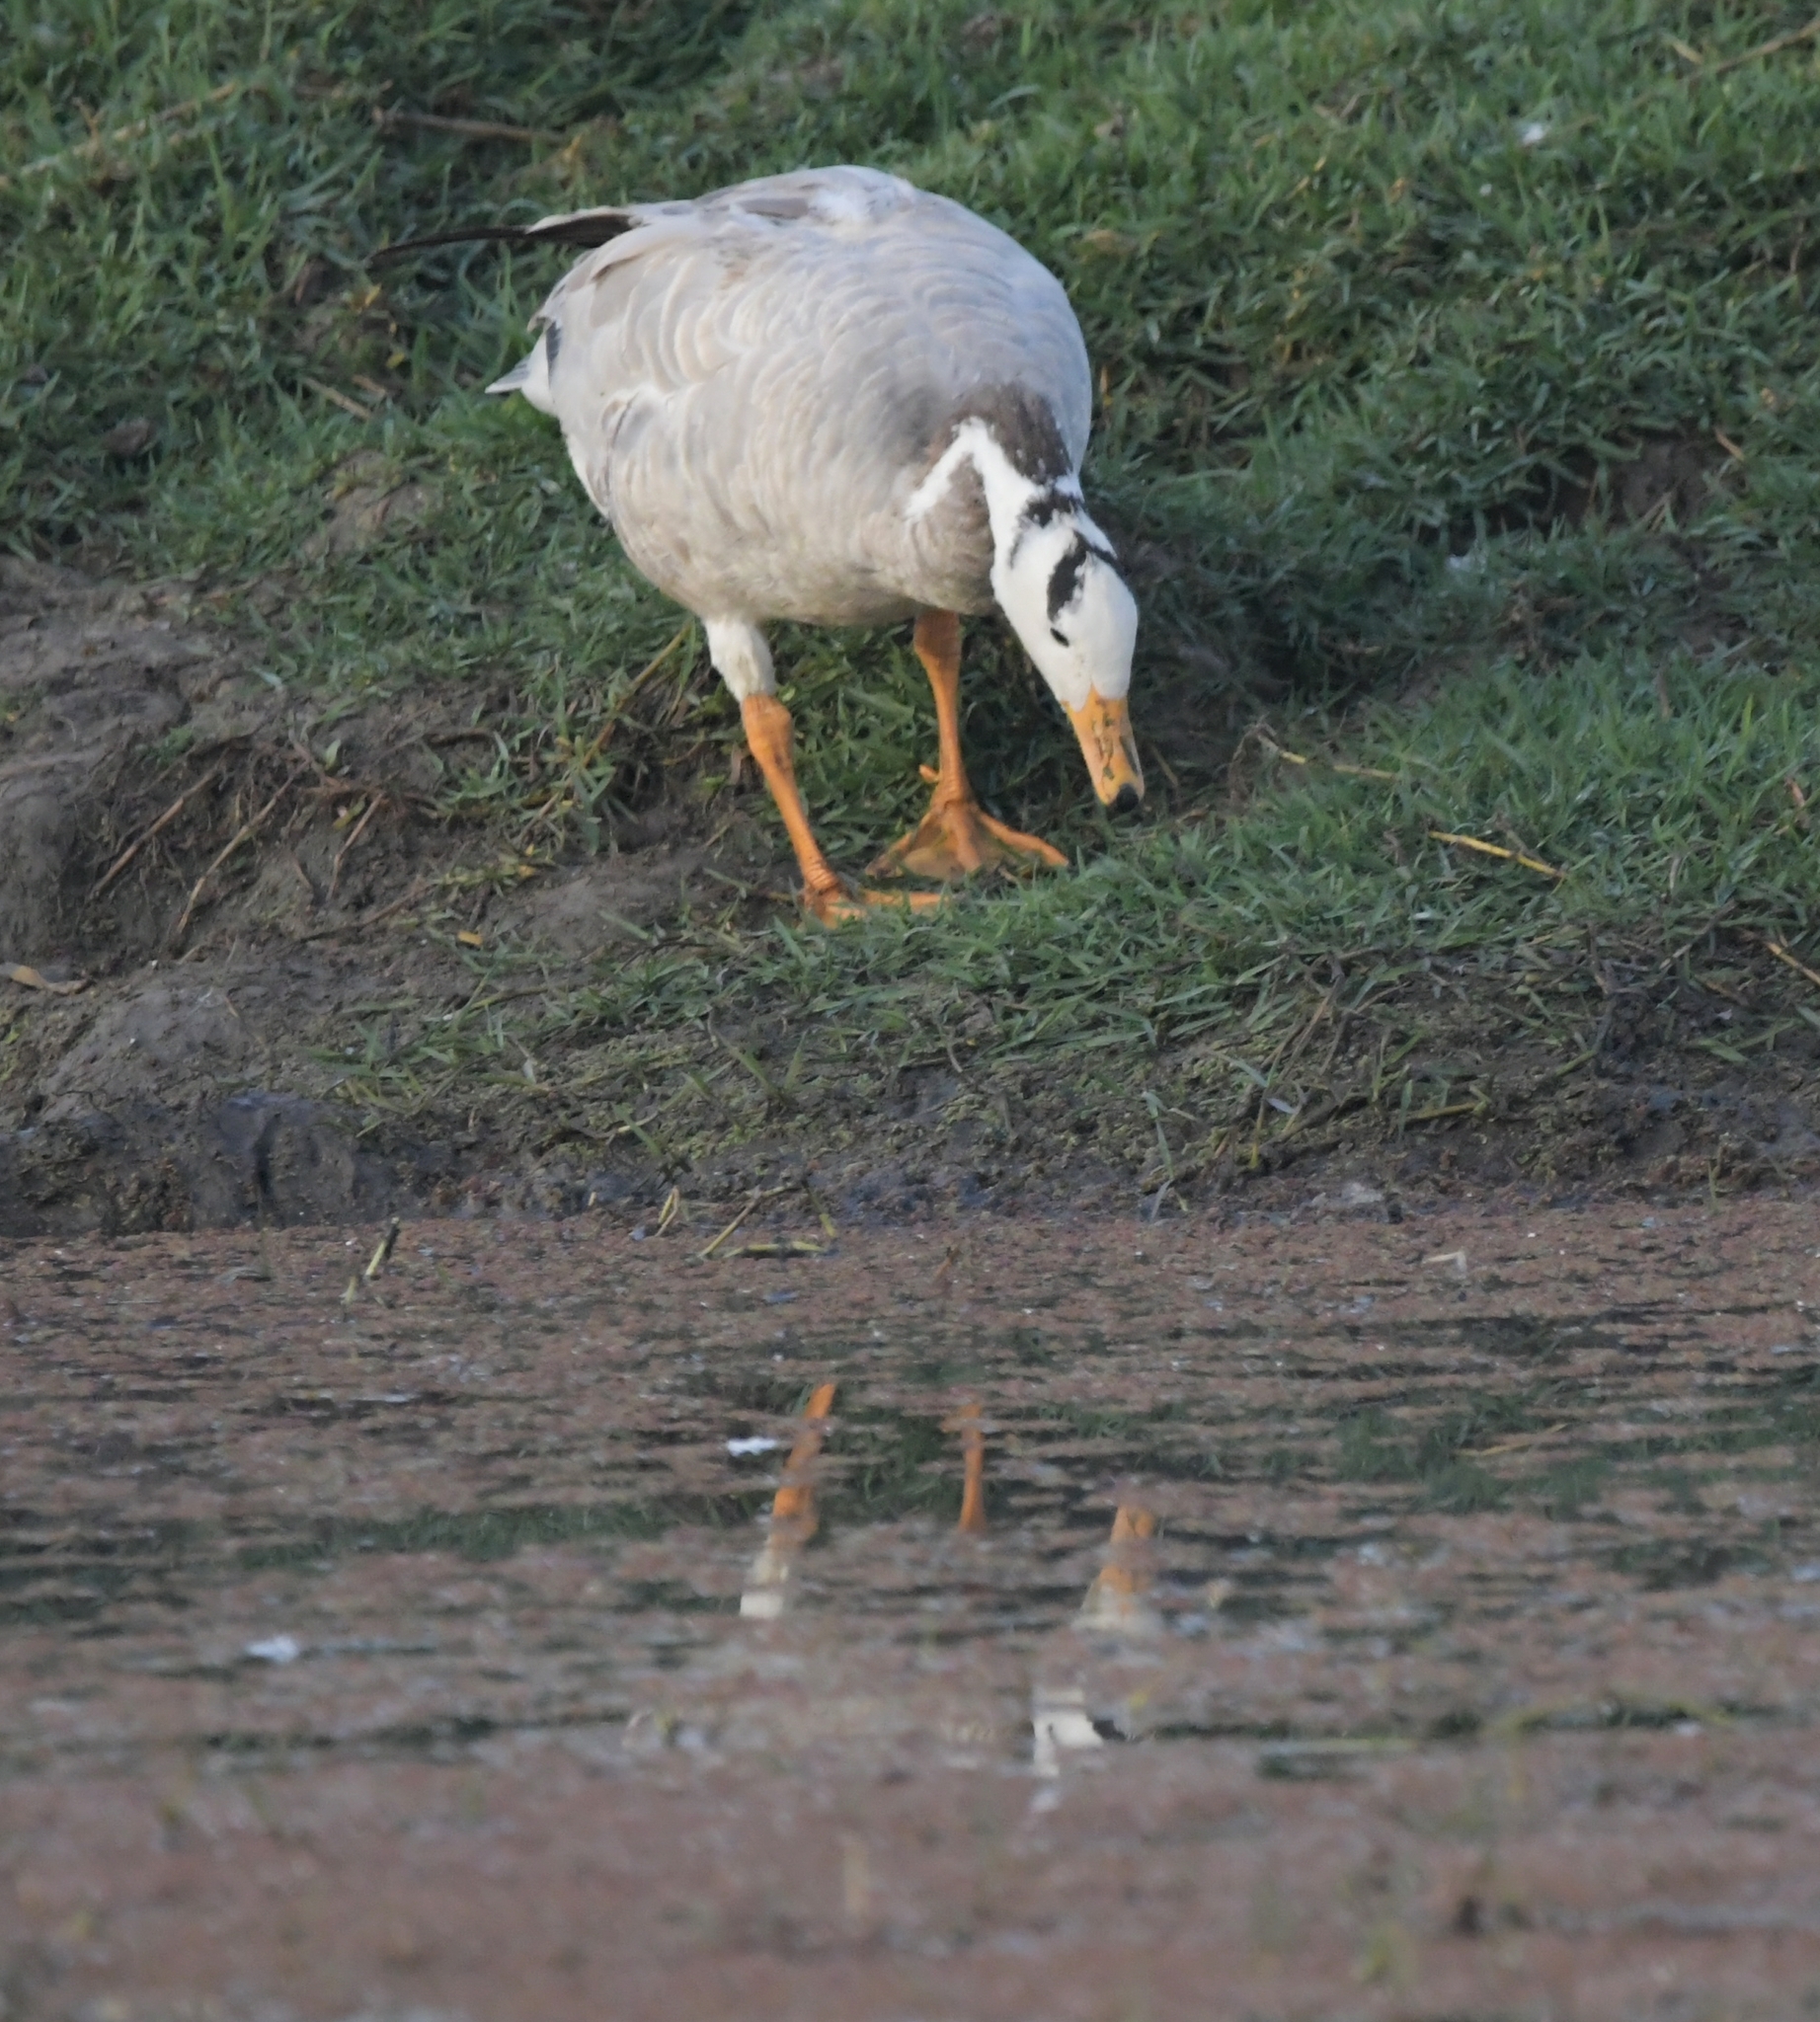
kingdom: Animalia
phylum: Chordata
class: Aves
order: Anseriformes
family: Anatidae
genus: Anser
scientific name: Anser indicus
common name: Bar-headed goose
